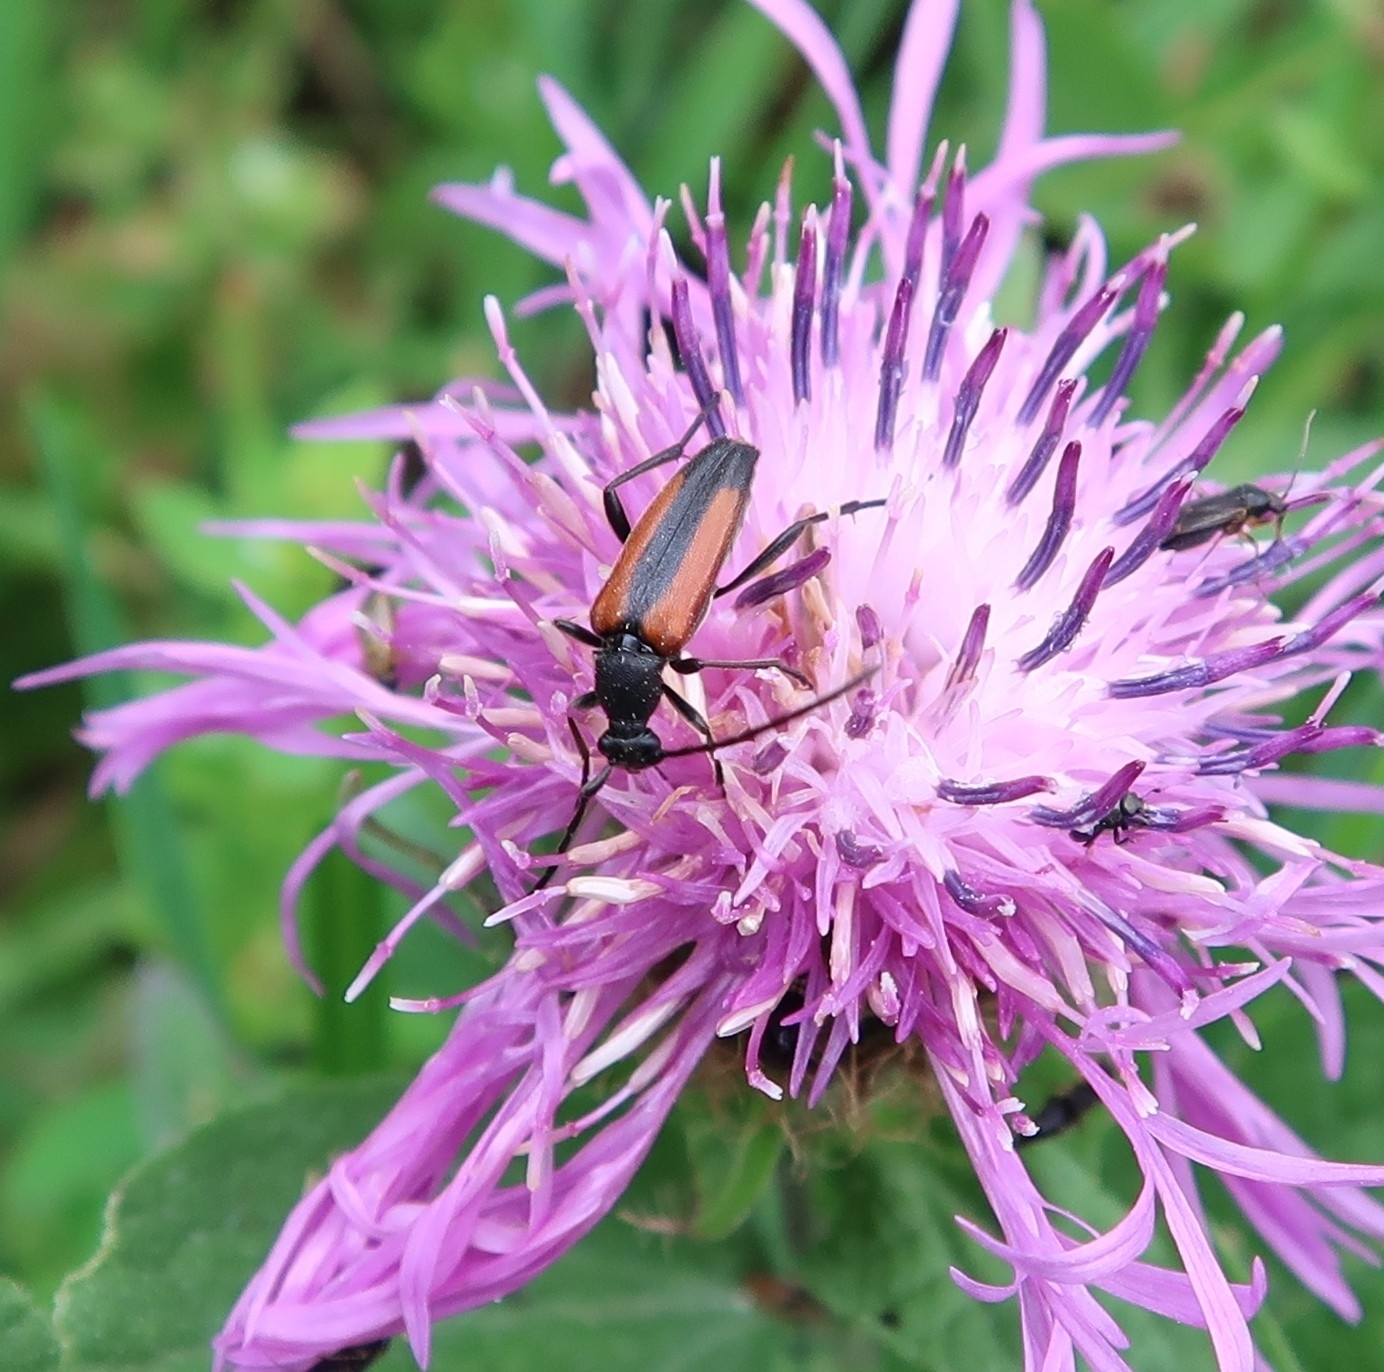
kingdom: Animalia
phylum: Arthropoda
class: Insecta
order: Coleoptera
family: Cerambycidae
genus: Stenurella
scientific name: Stenurella melanura
